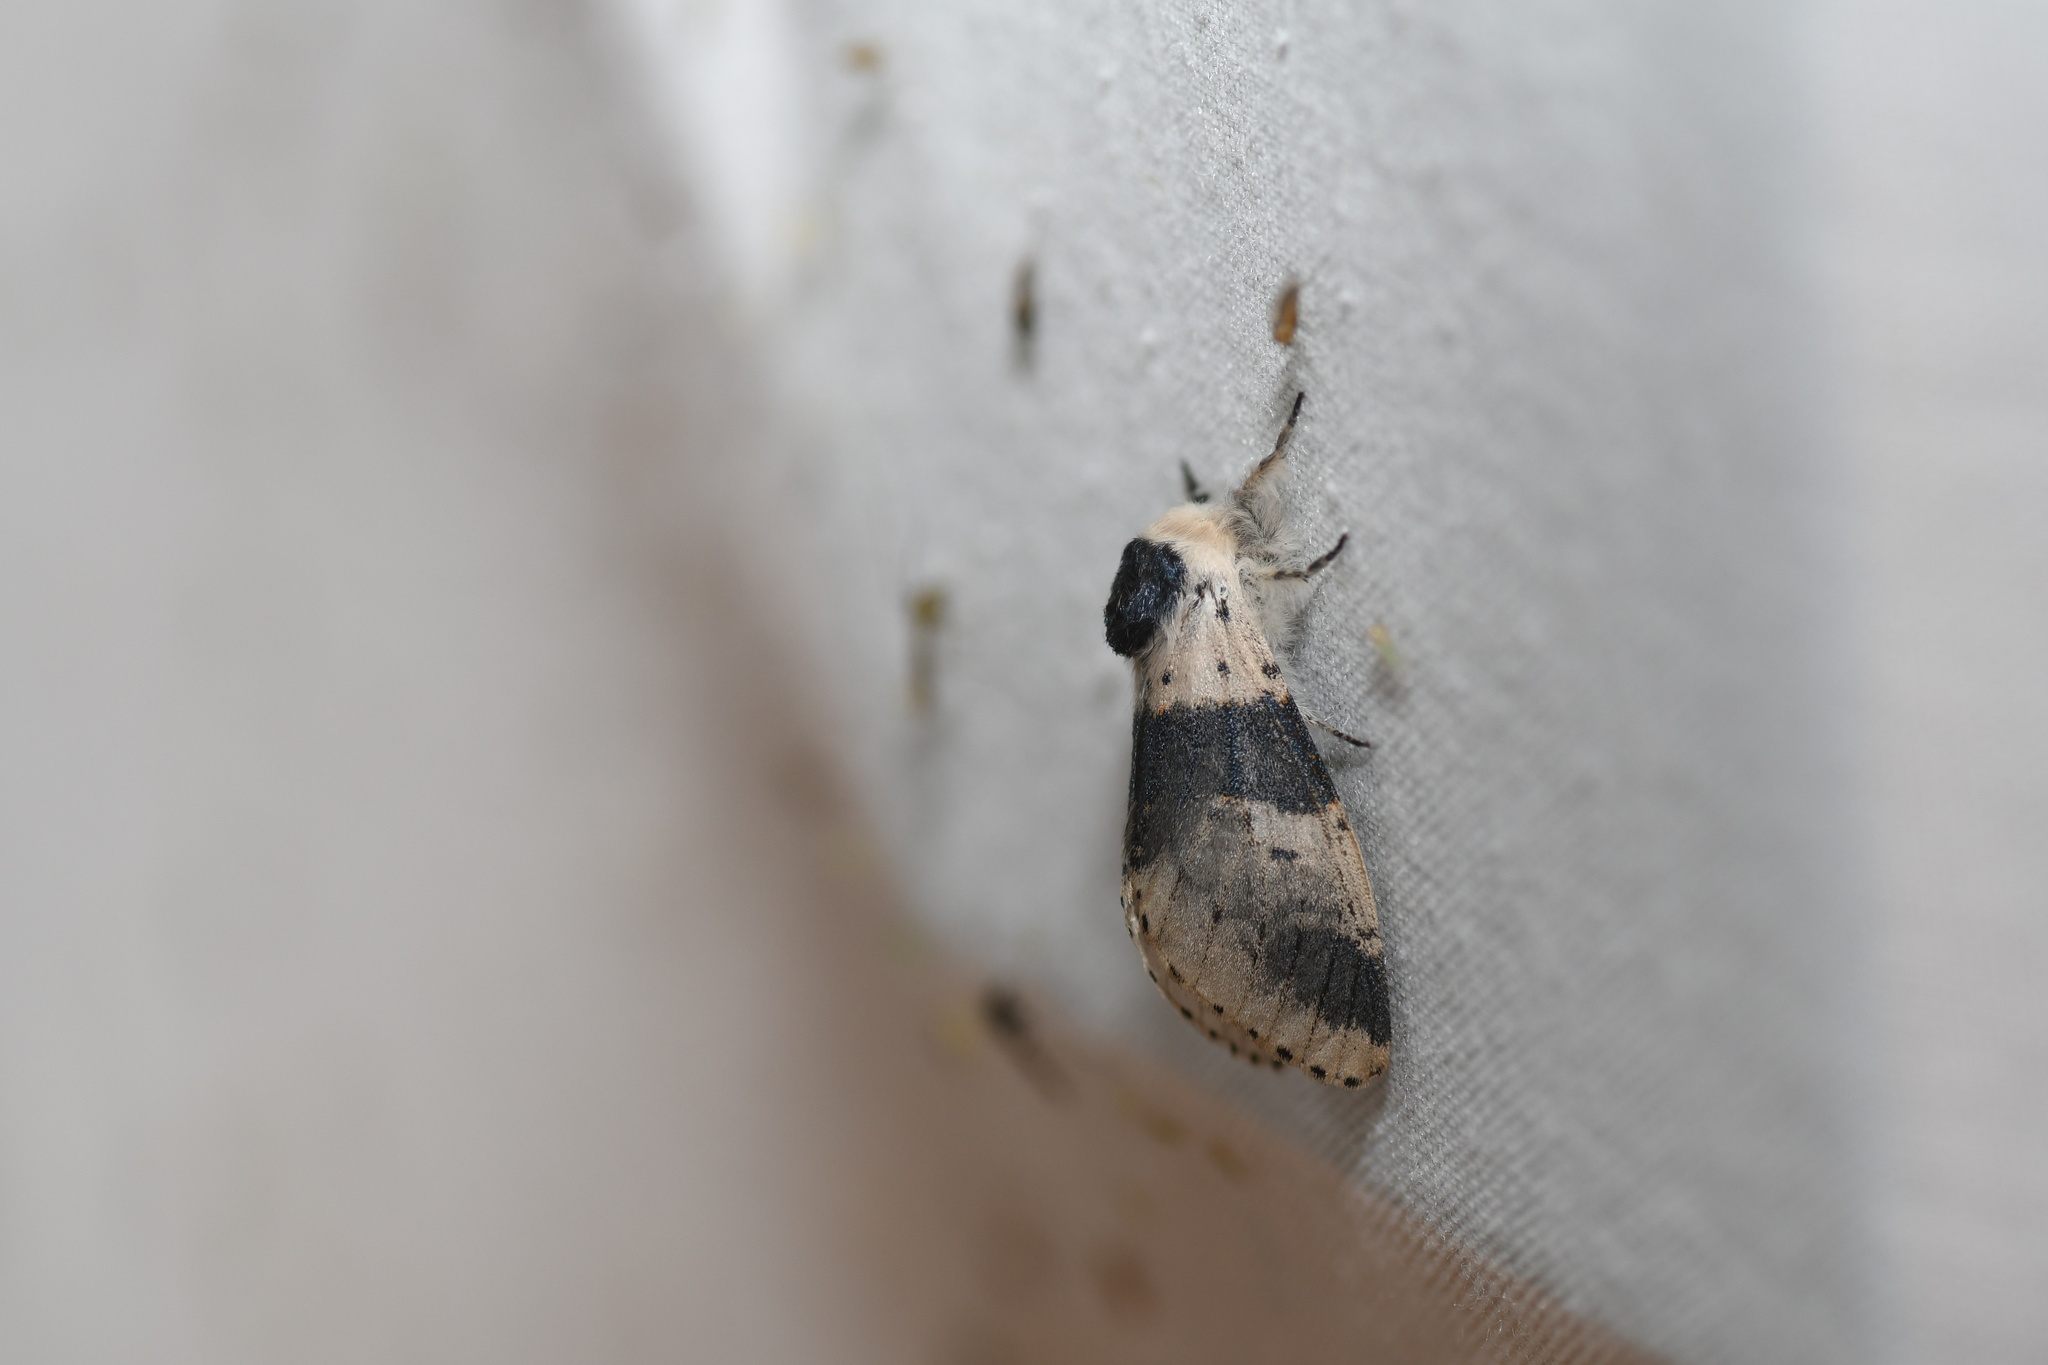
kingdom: Animalia
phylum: Arthropoda
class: Insecta
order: Lepidoptera
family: Notodontidae
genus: Furcula
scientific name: Furcula modesta
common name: Modest furcula moth
